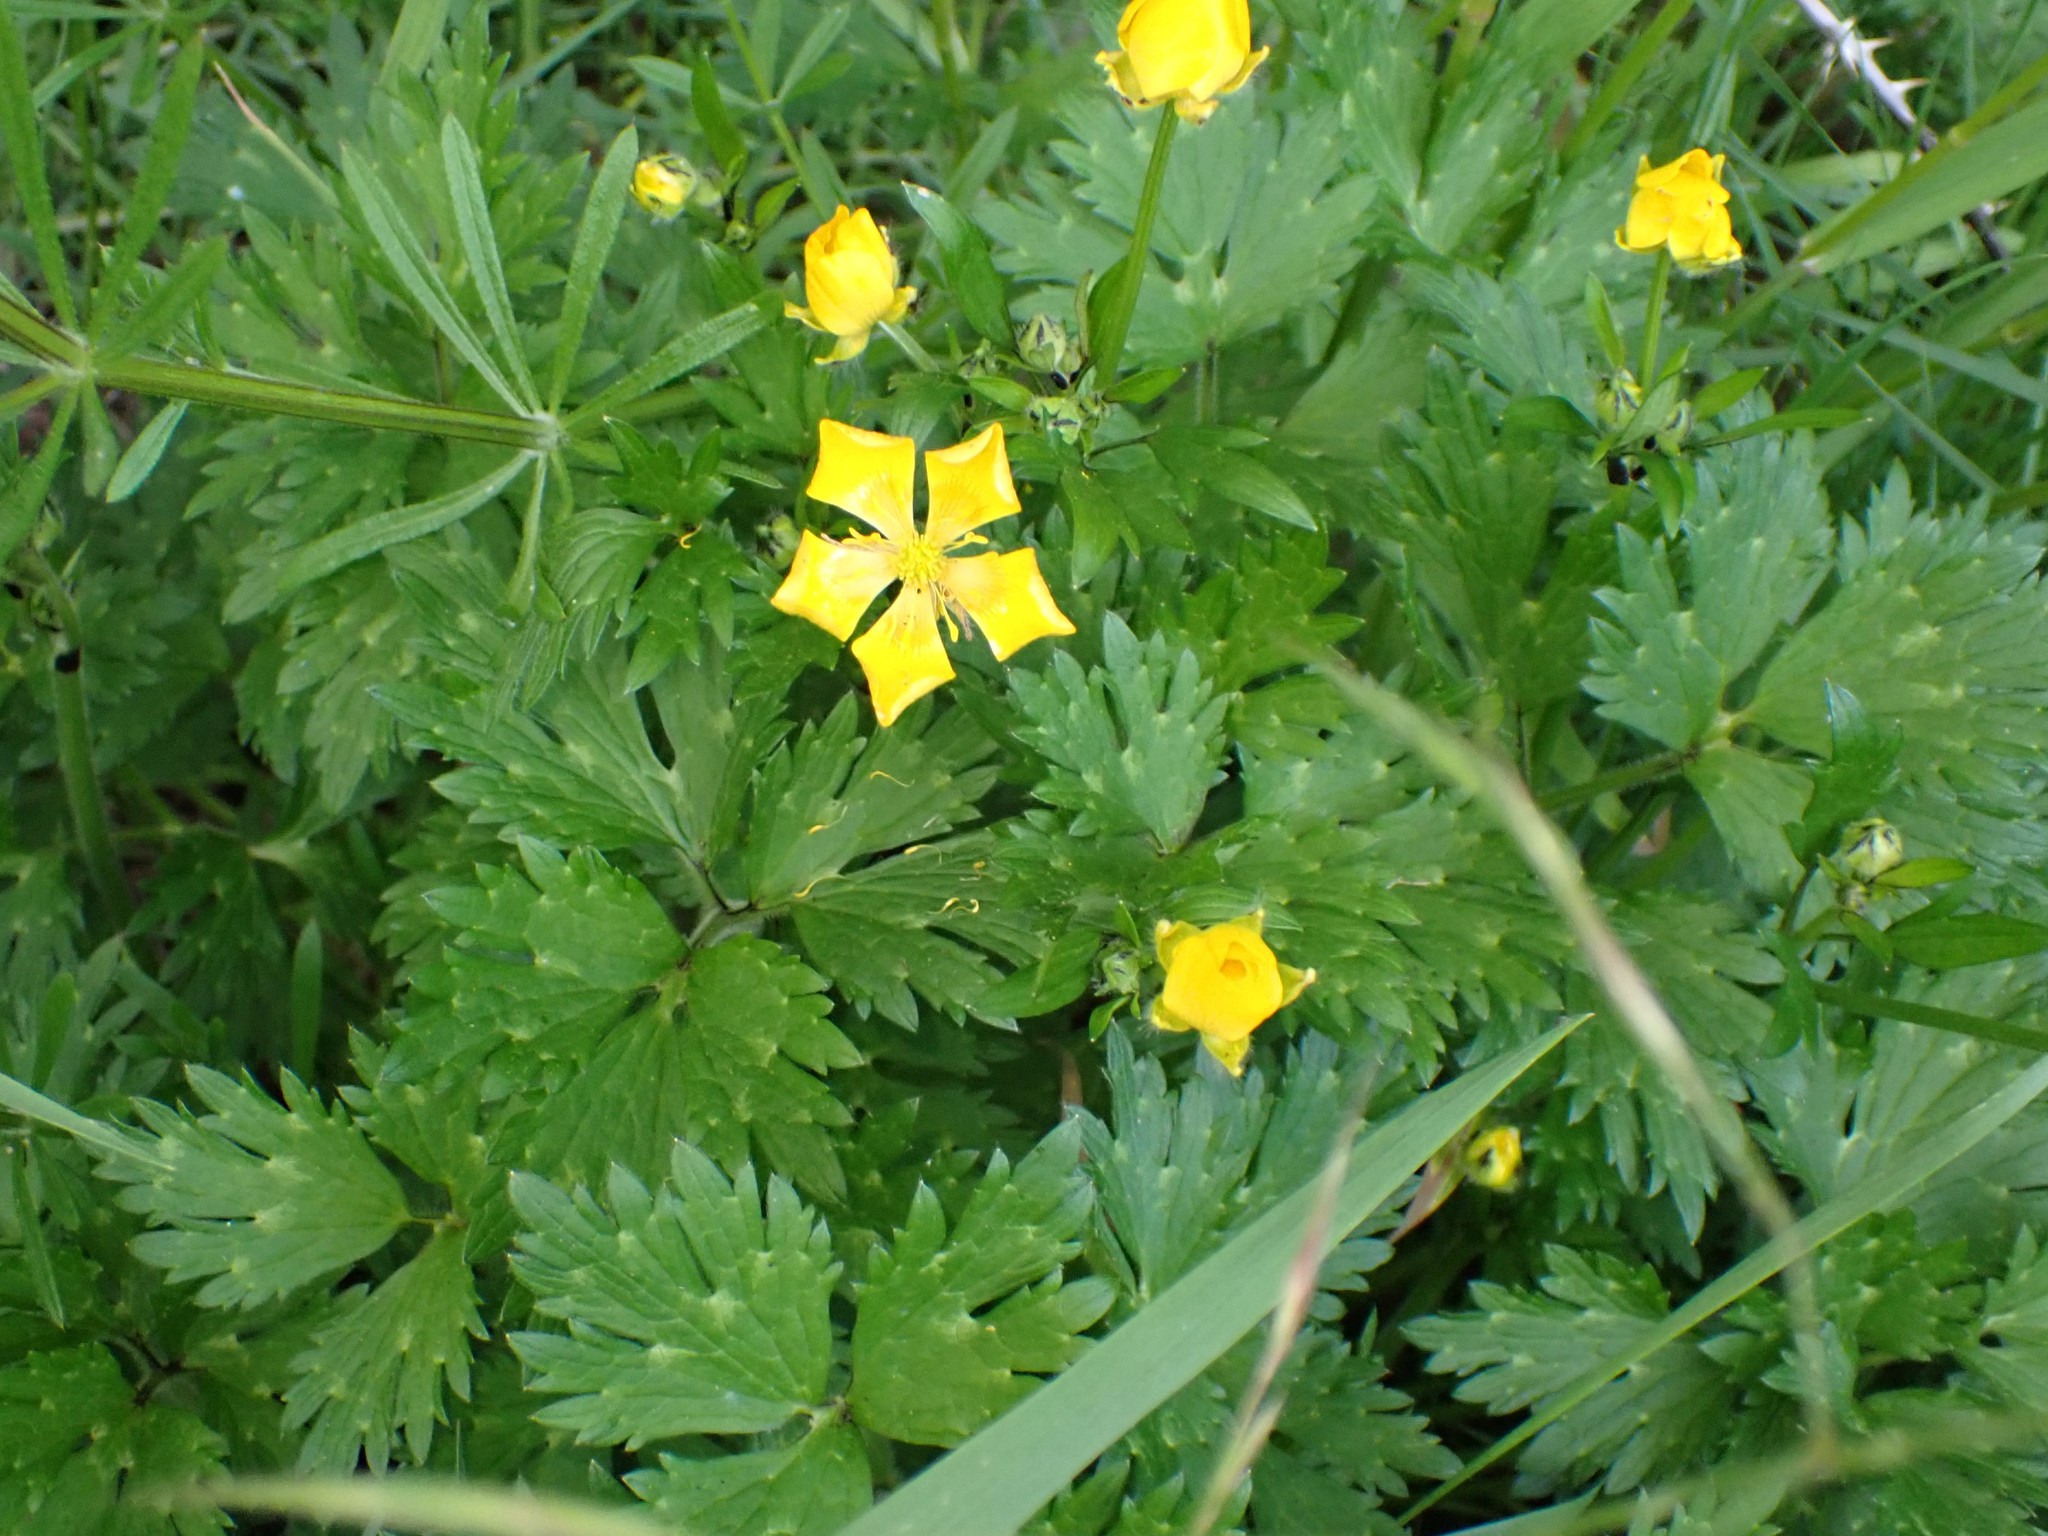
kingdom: Plantae
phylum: Tracheophyta
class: Magnoliopsida
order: Ranunculales
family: Ranunculaceae
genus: Ranunculus
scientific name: Ranunculus repens
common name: Creeping buttercup
